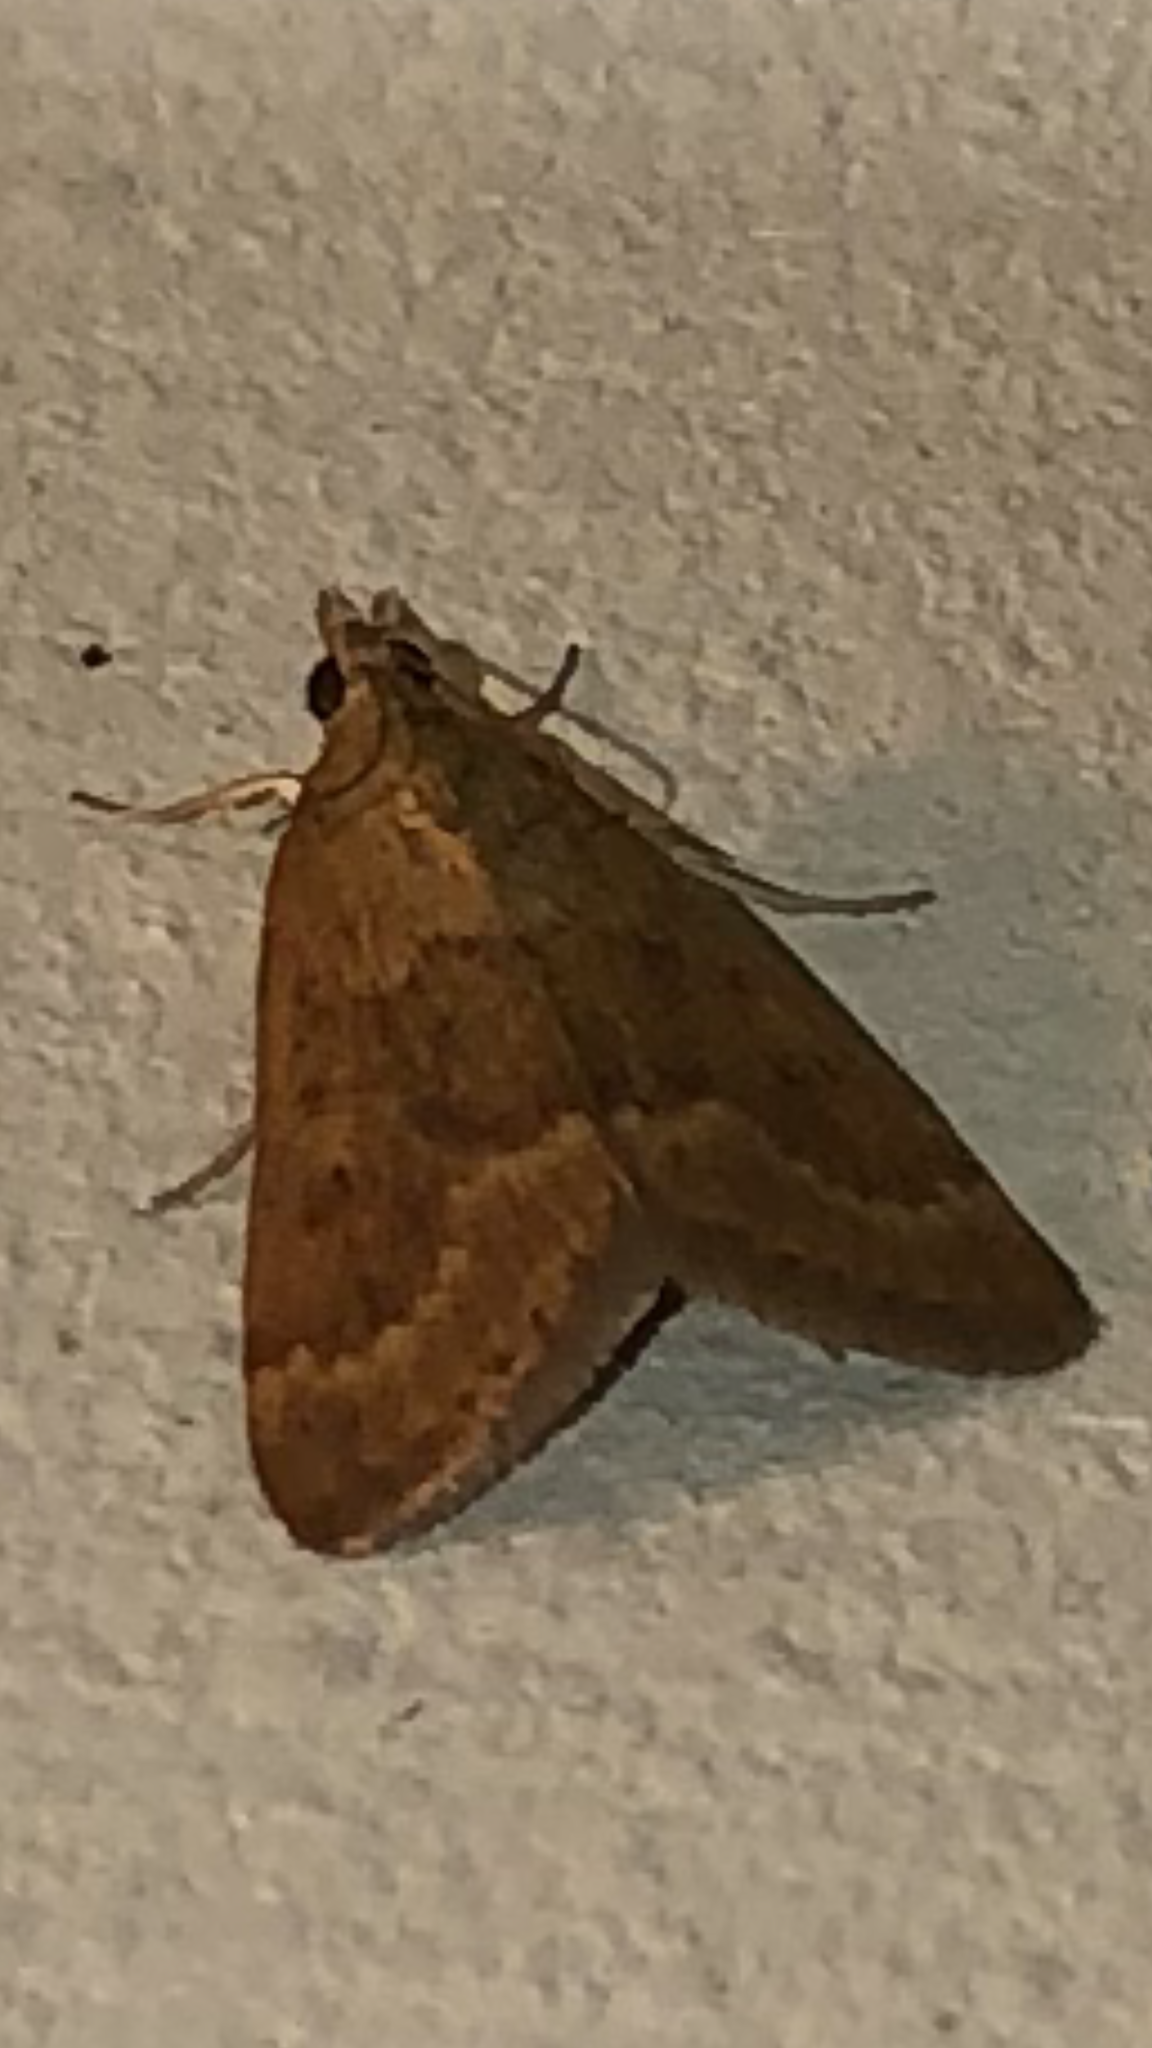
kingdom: Animalia
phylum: Arthropoda
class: Insecta
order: Lepidoptera
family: Crambidae
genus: Achyra
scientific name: Achyra rantalis
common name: Garden webworm
